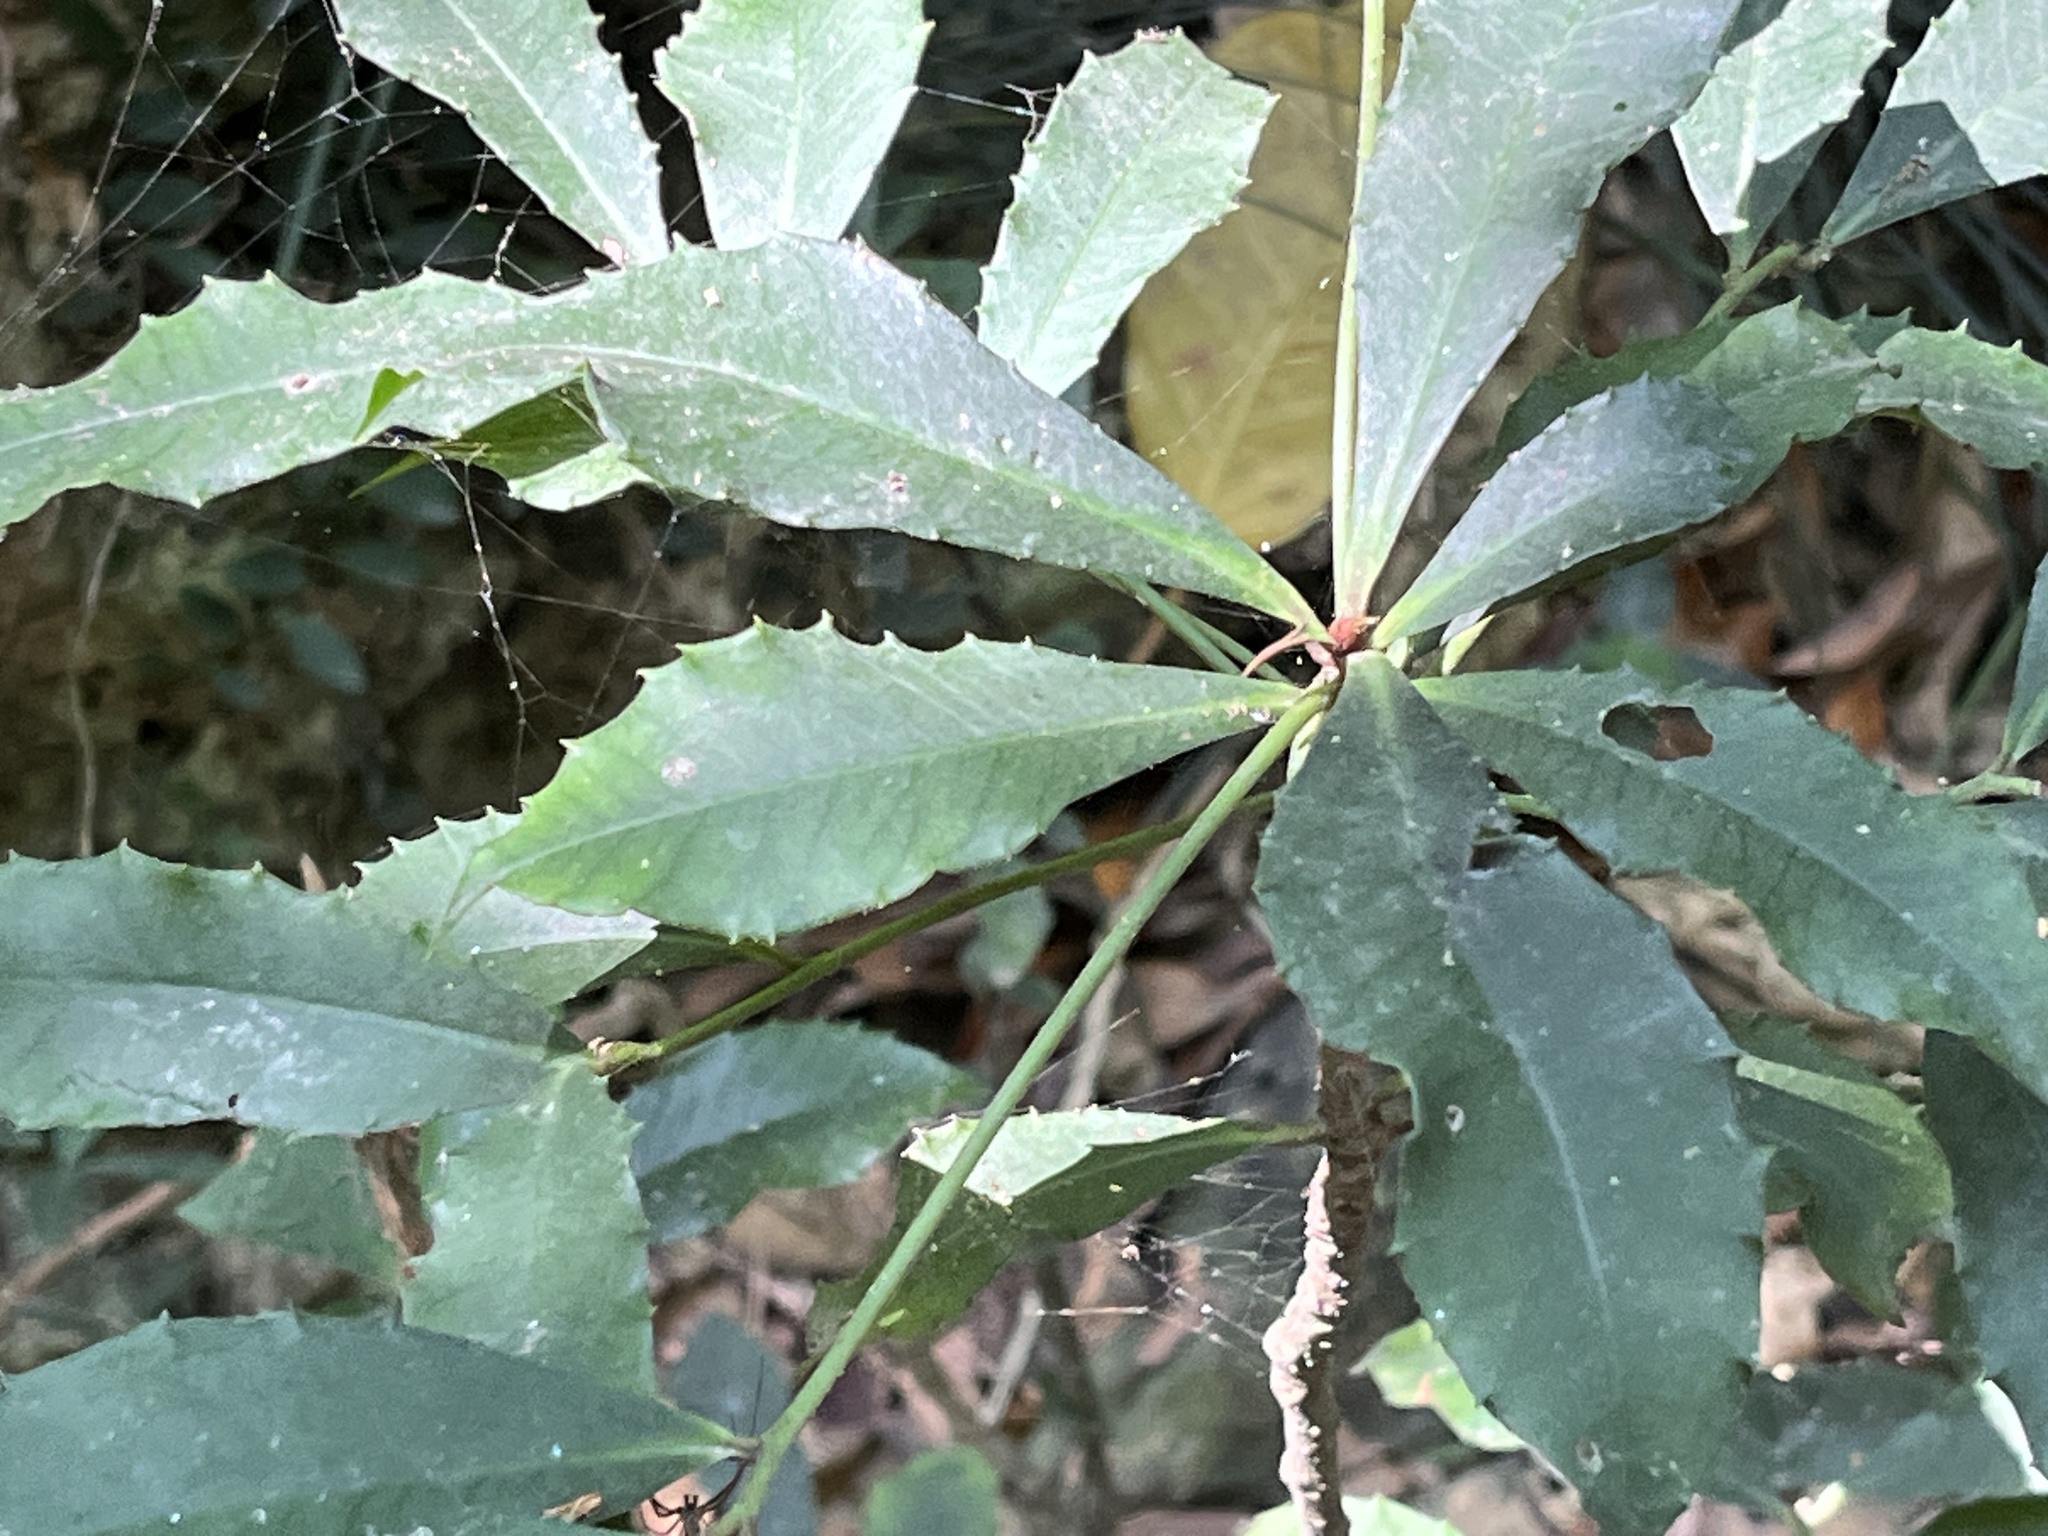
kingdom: Plantae
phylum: Tracheophyta
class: Magnoliopsida
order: Ericales
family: Primulaceae
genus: Ardisia
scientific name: Ardisia cornudentata
